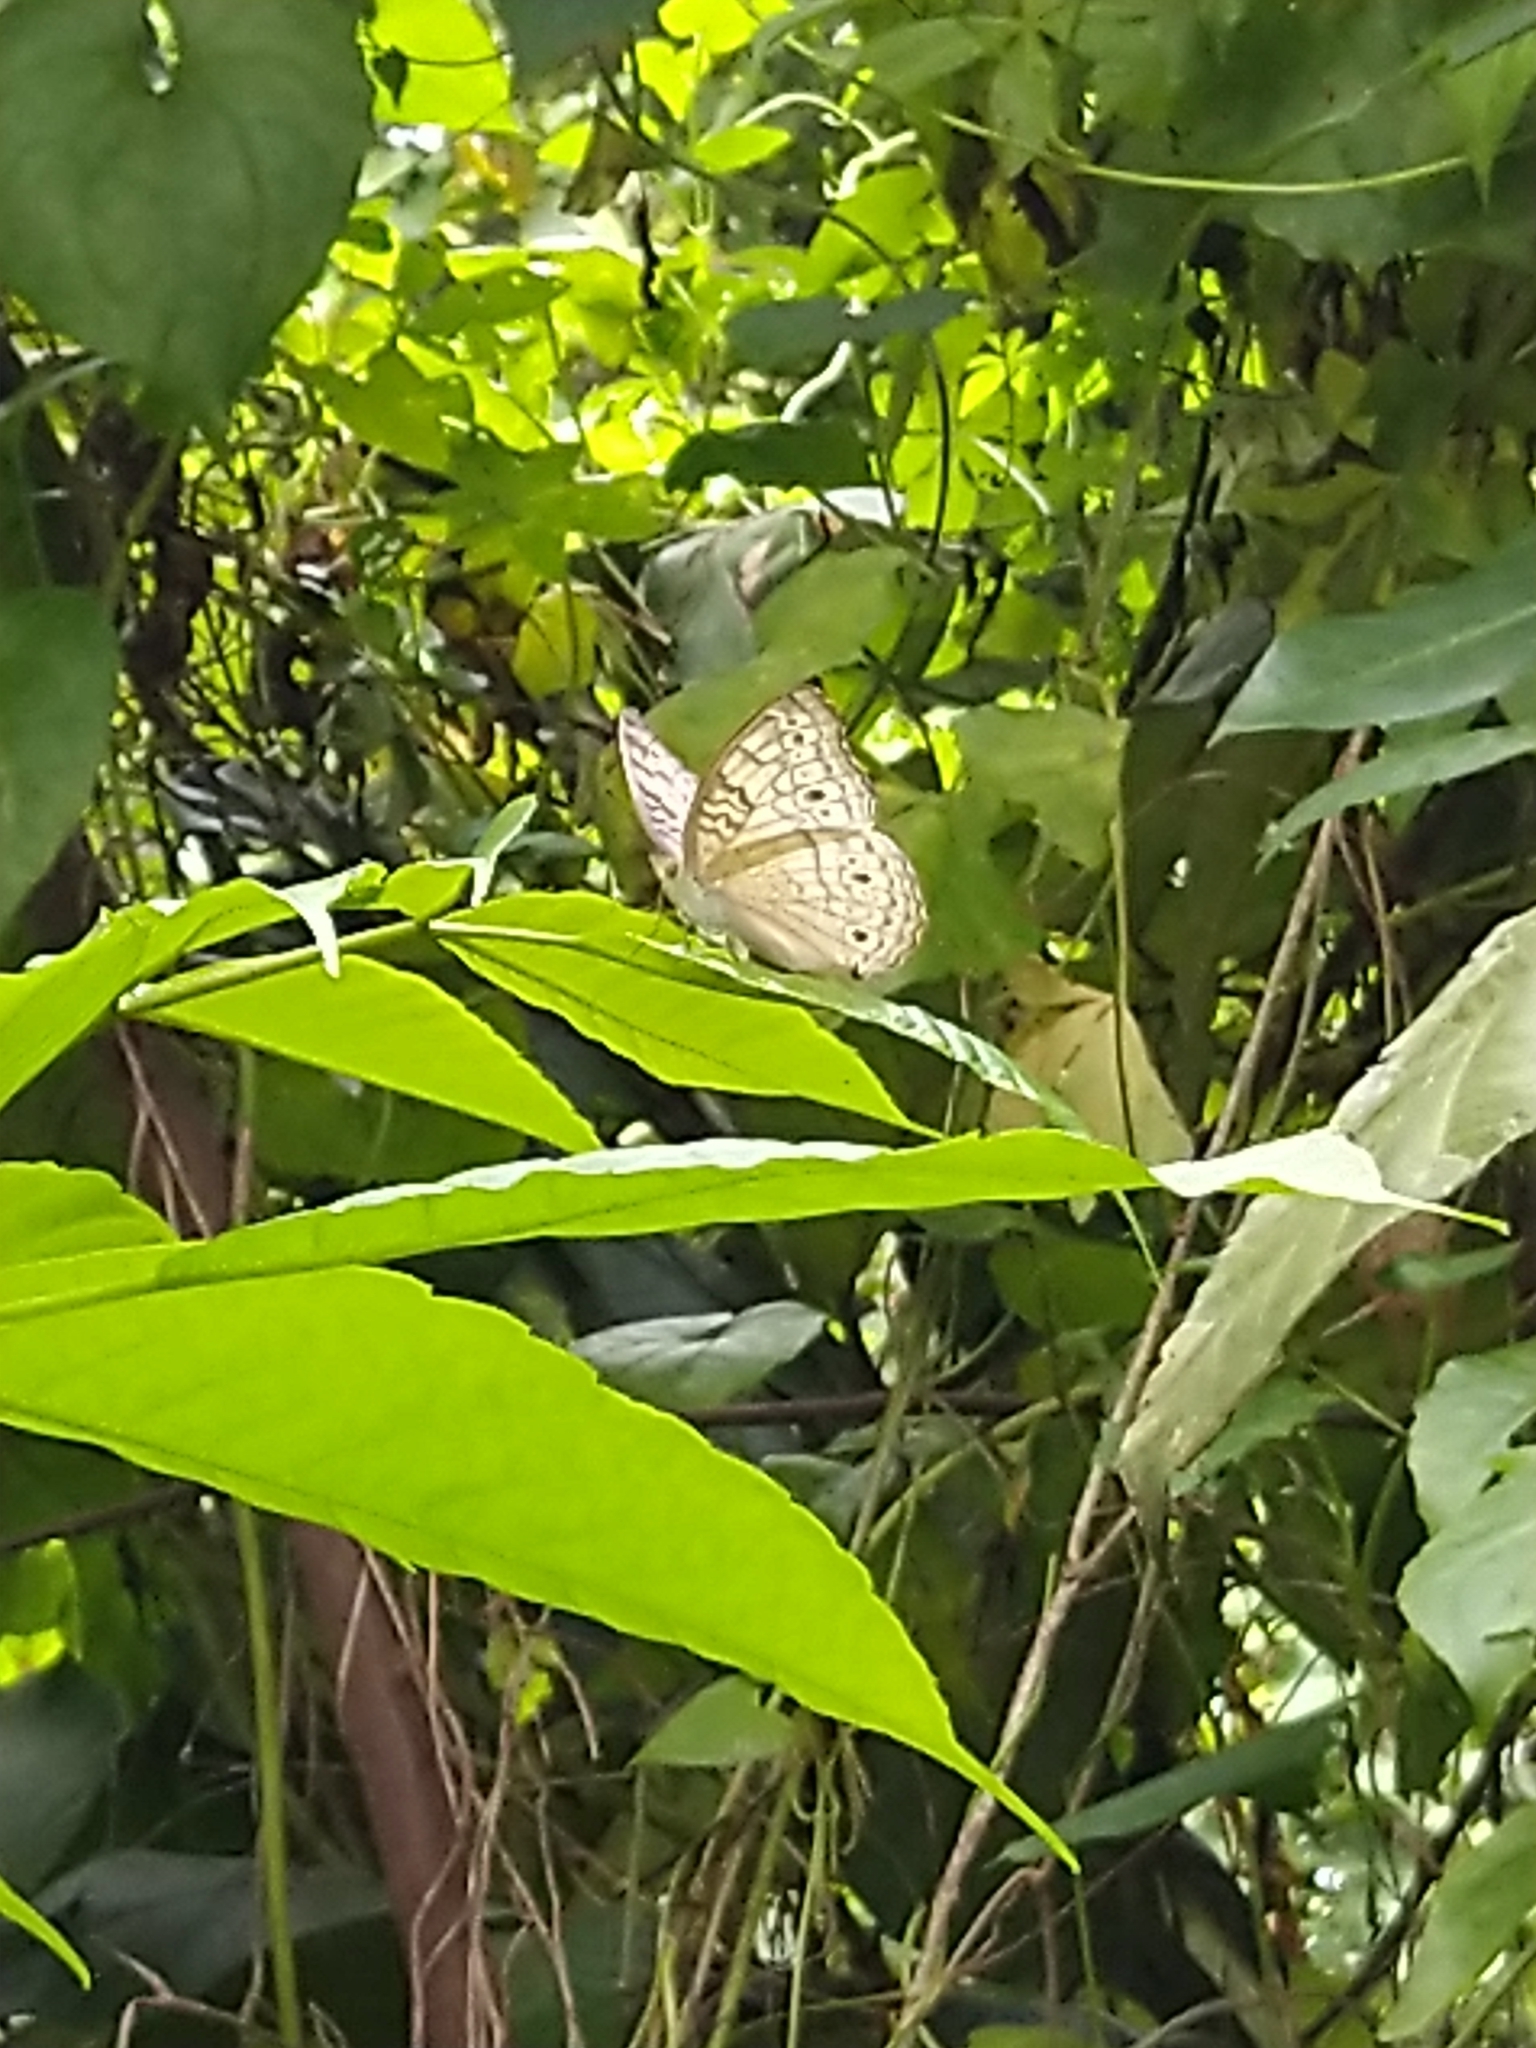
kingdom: Animalia
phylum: Arthropoda
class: Insecta
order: Lepidoptera
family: Nymphalidae
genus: Junonia
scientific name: Junonia atlites
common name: Grey pansy
